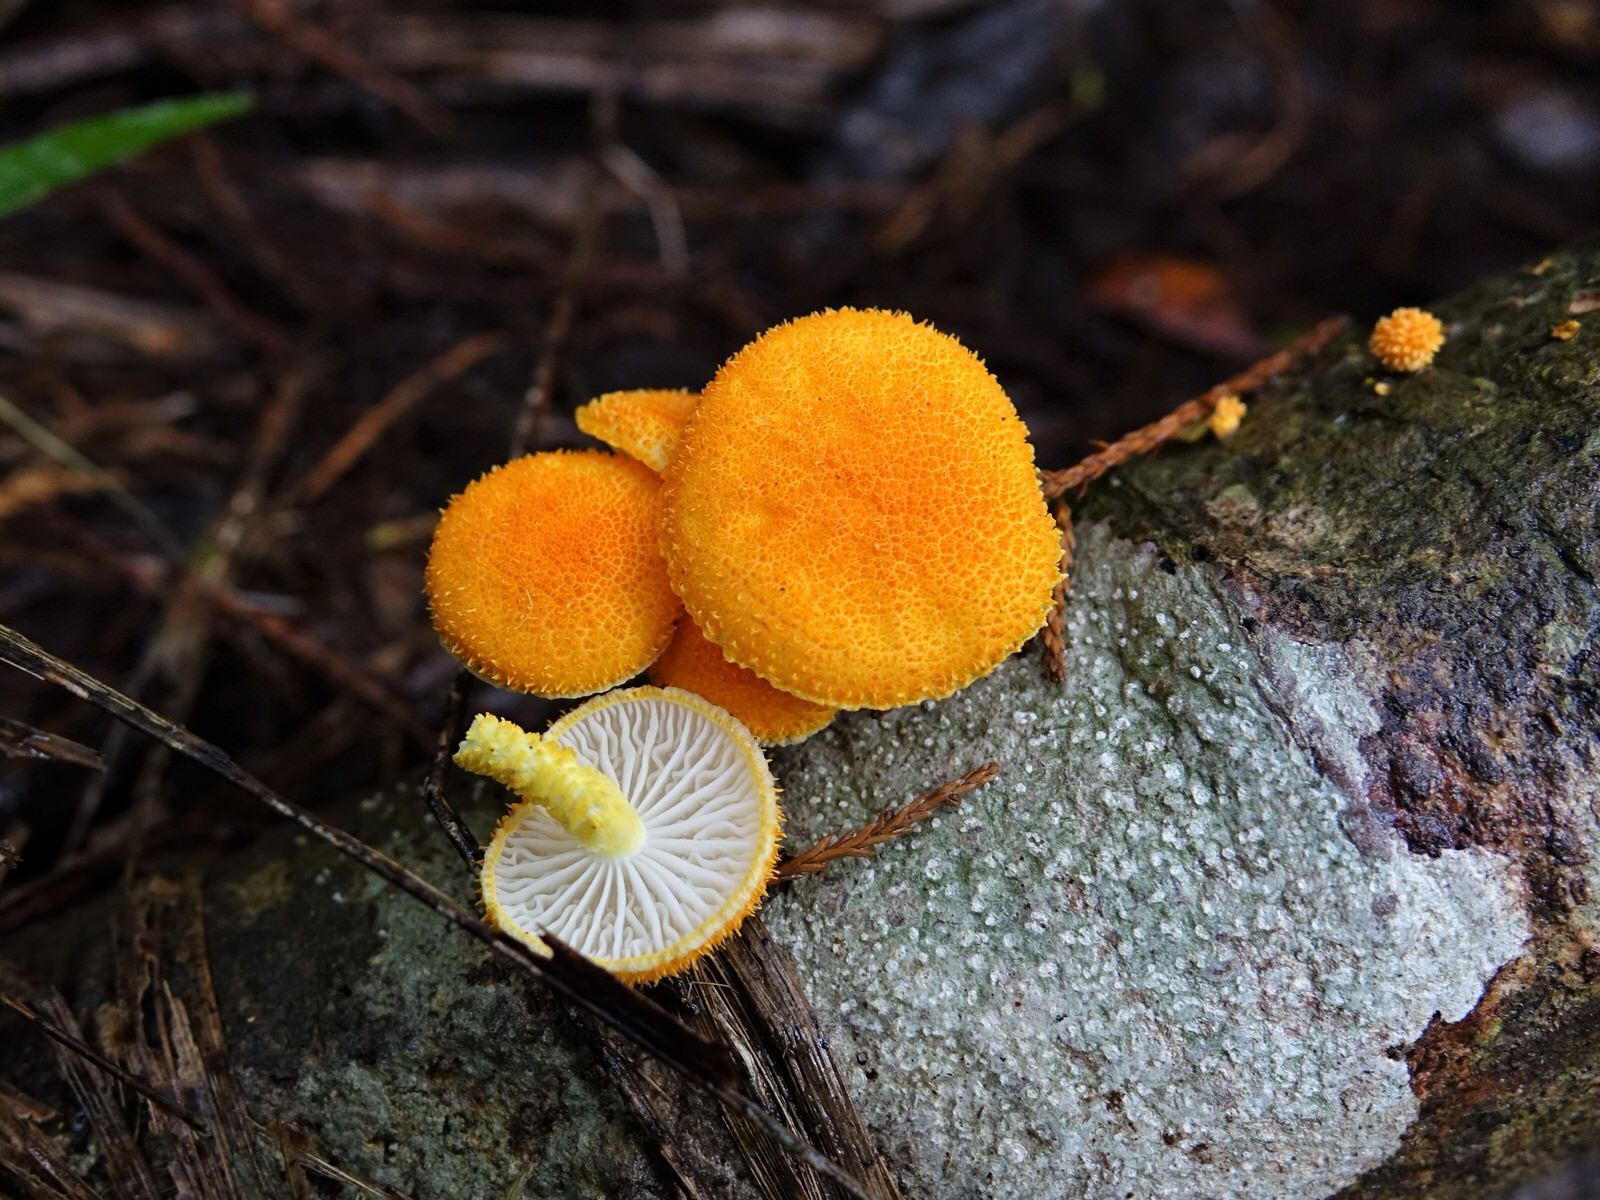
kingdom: Fungi
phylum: Basidiomycota
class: Agaricomycetes
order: Agaricales
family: Physalacriaceae
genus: Cyptotrama
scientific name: Cyptotrama asprata
